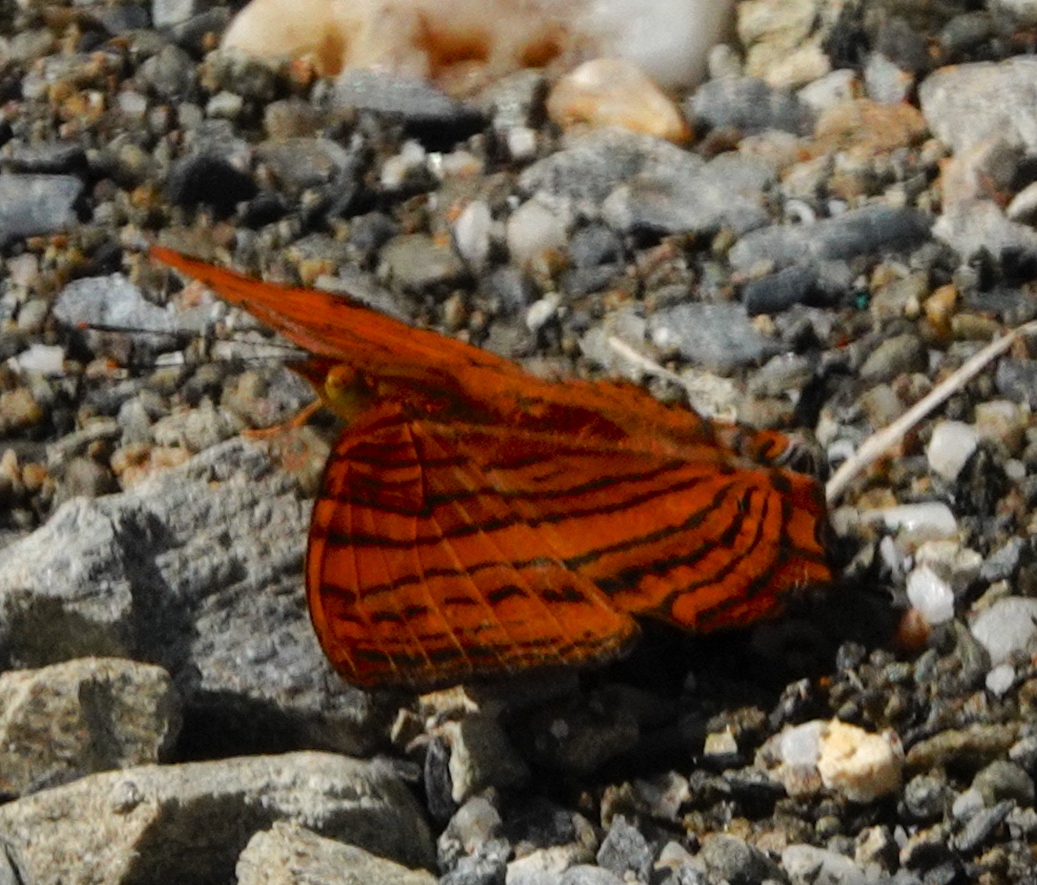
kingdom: Animalia
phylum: Arthropoda
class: Insecta
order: Lepidoptera
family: Nymphalidae
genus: Cyrestis
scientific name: Cyrestis thyonneus
